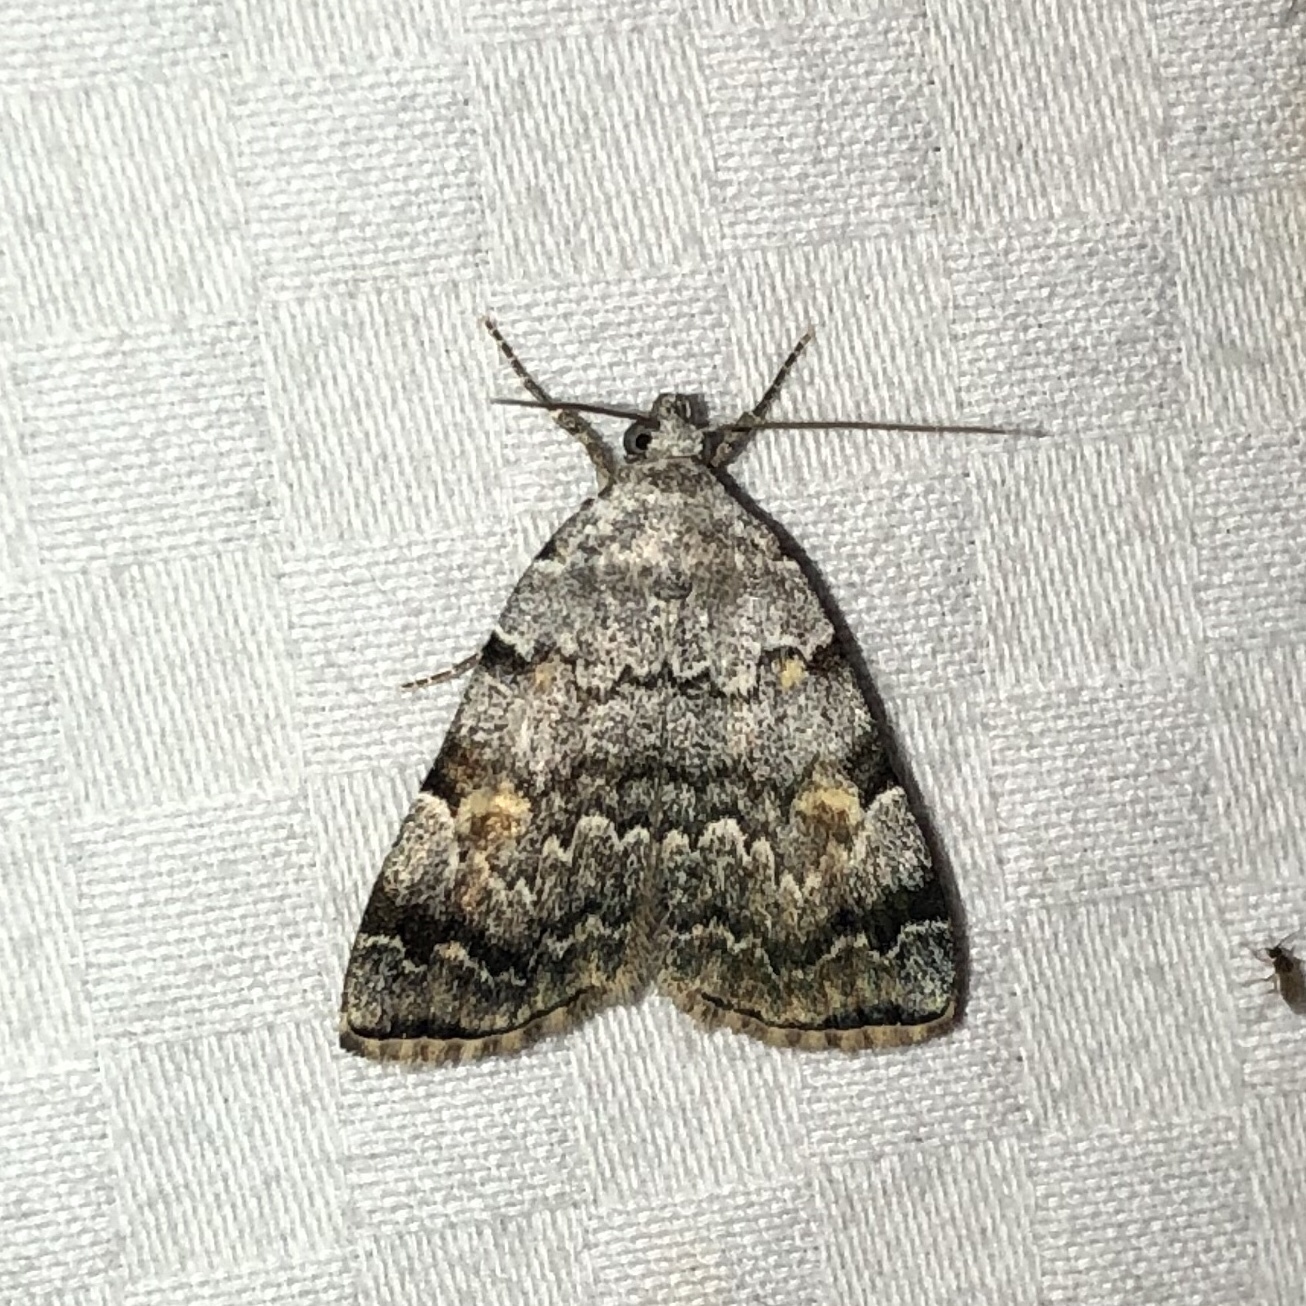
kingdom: Animalia
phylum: Arthropoda
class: Insecta
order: Lepidoptera
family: Erebidae
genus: Idia
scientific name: Idia americalis
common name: American idia moth
